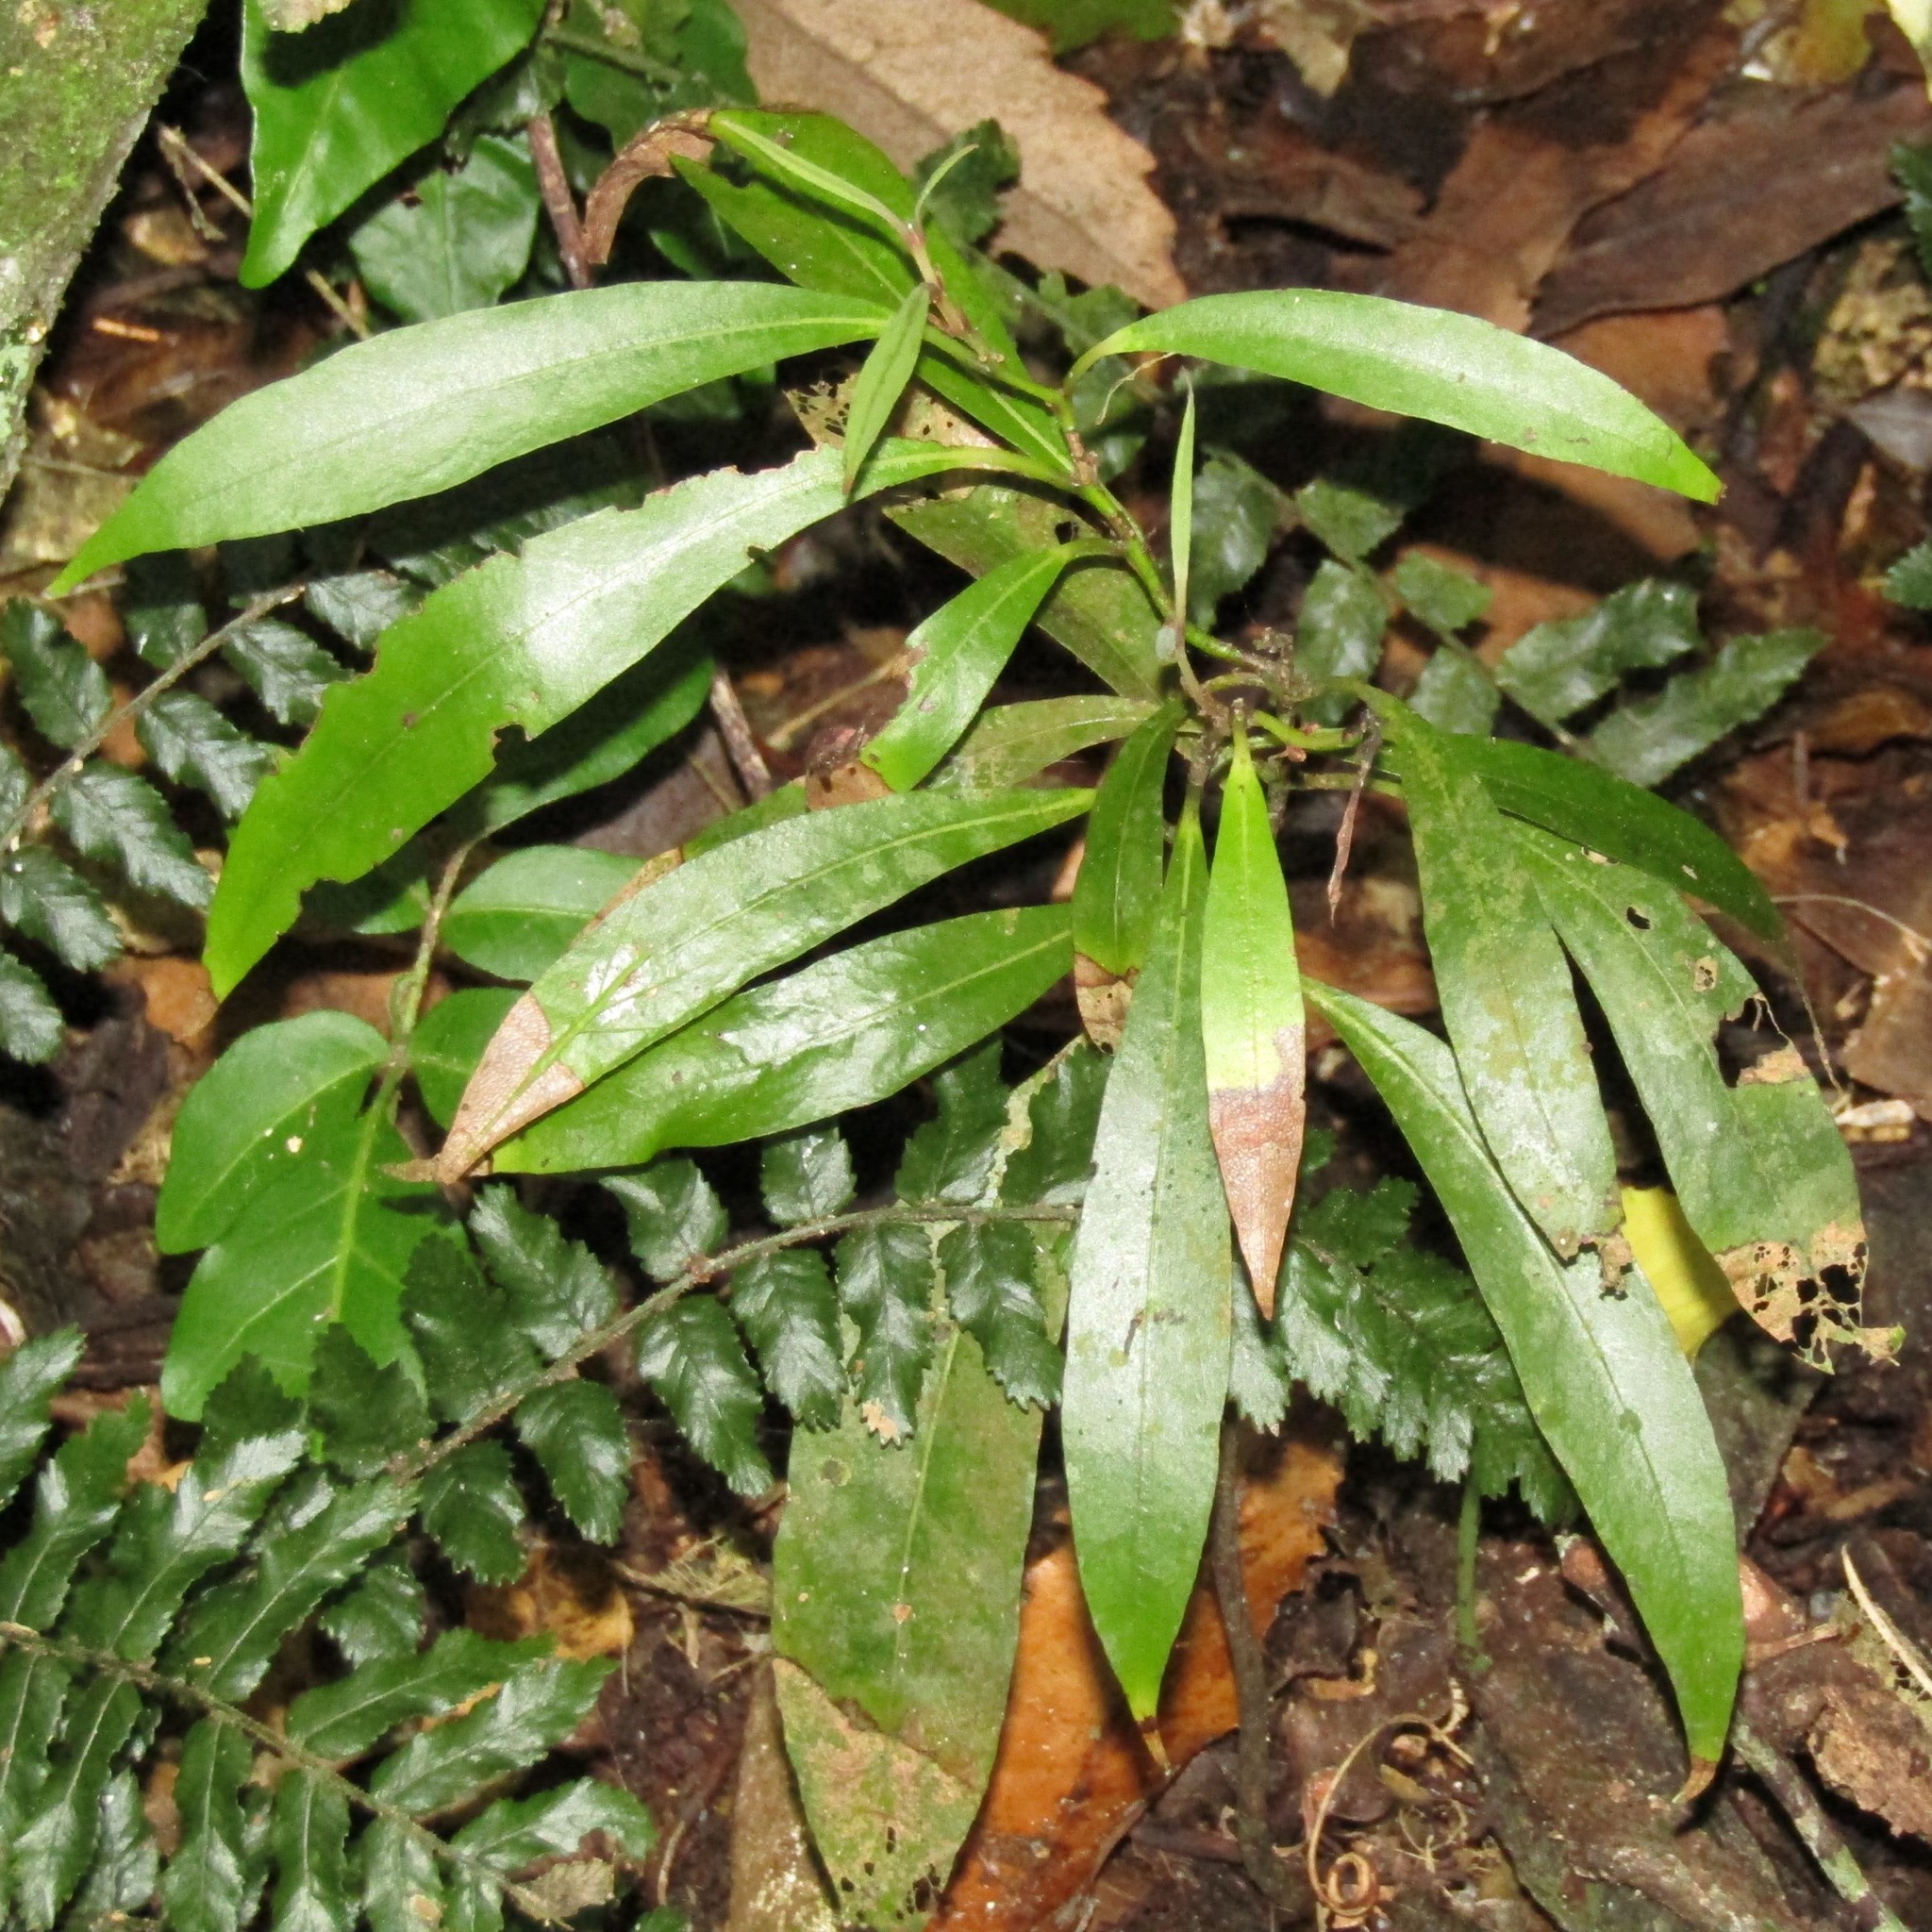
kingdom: Plantae
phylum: Tracheophyta
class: Magnoliopsida
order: Laurales
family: Lauraceae
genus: Beilschmiedia
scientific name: Beilschmiedia tawa
